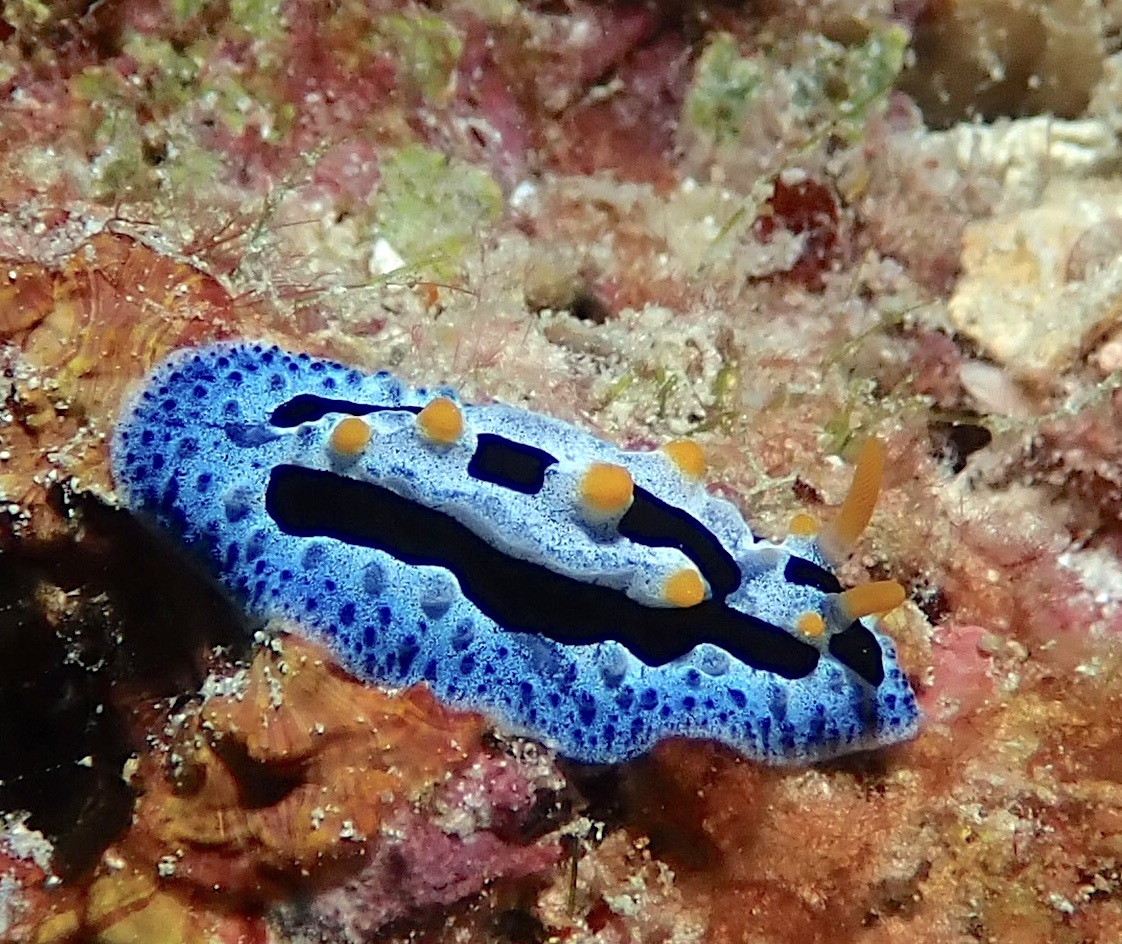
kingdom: Animalia
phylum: Mollusca
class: Gastropoda
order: Nudibranchia
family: Phyllidiidae
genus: Phyllidia
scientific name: Phyllidia coelestis
